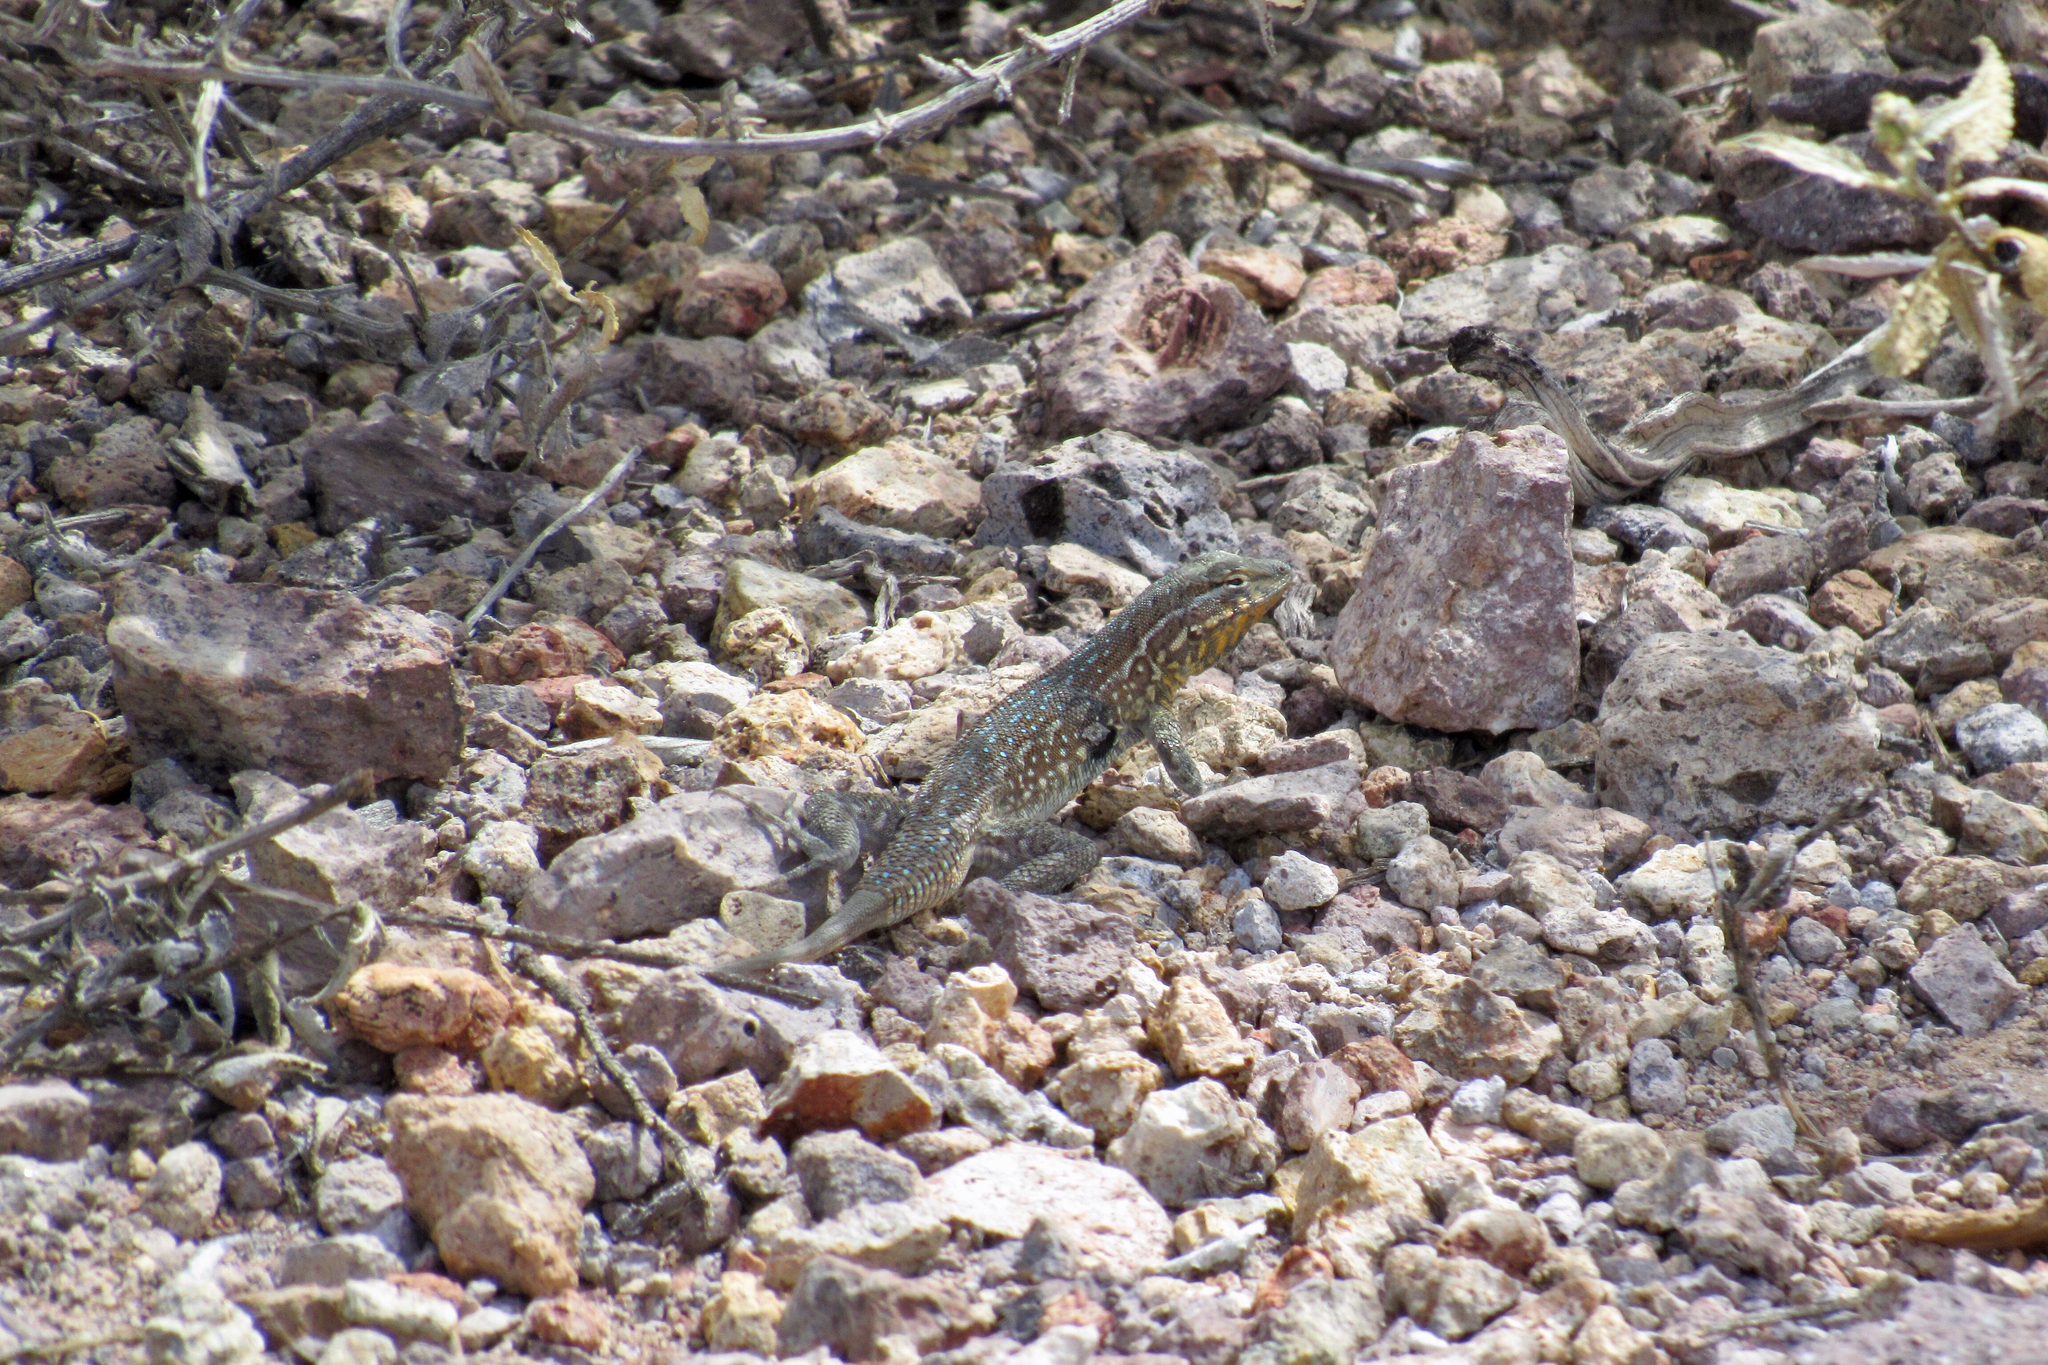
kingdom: Animalia
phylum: Chordata
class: Squamata
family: Phrynosomatidae
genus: Uta
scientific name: Uta stansburiana
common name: Side-blotched lizard
